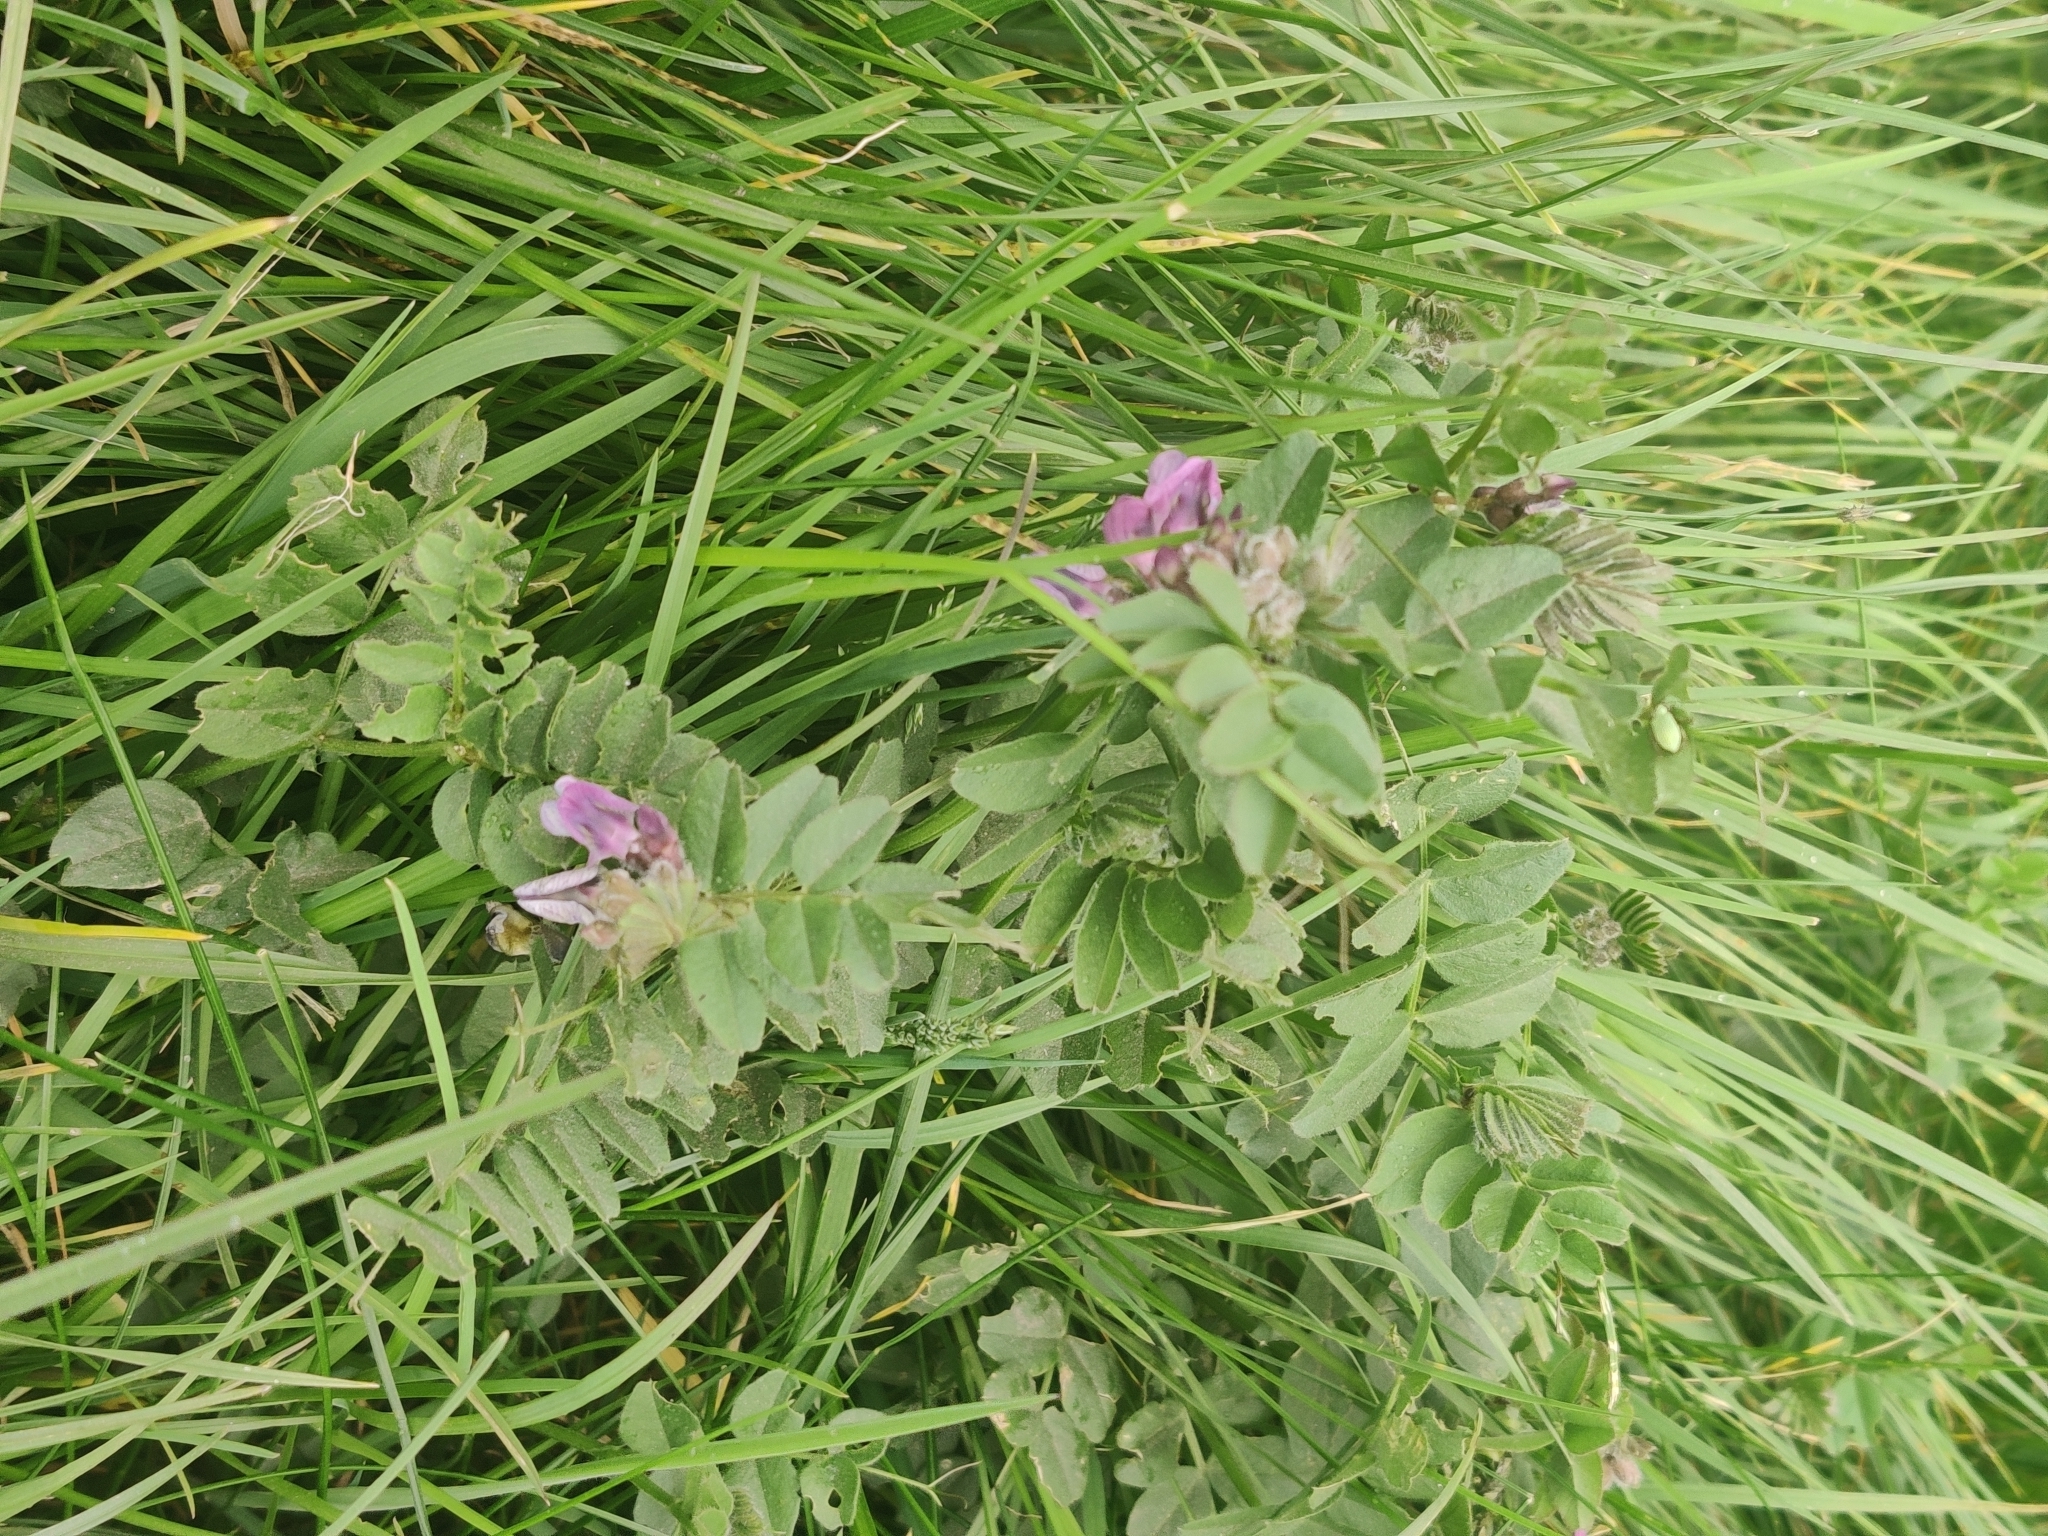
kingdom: Plantae
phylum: Tracheophyta
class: Magnoliopsida
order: Fabales
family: Fabaceae
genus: Vicia
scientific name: Vicia sepium
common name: Bush vetch
